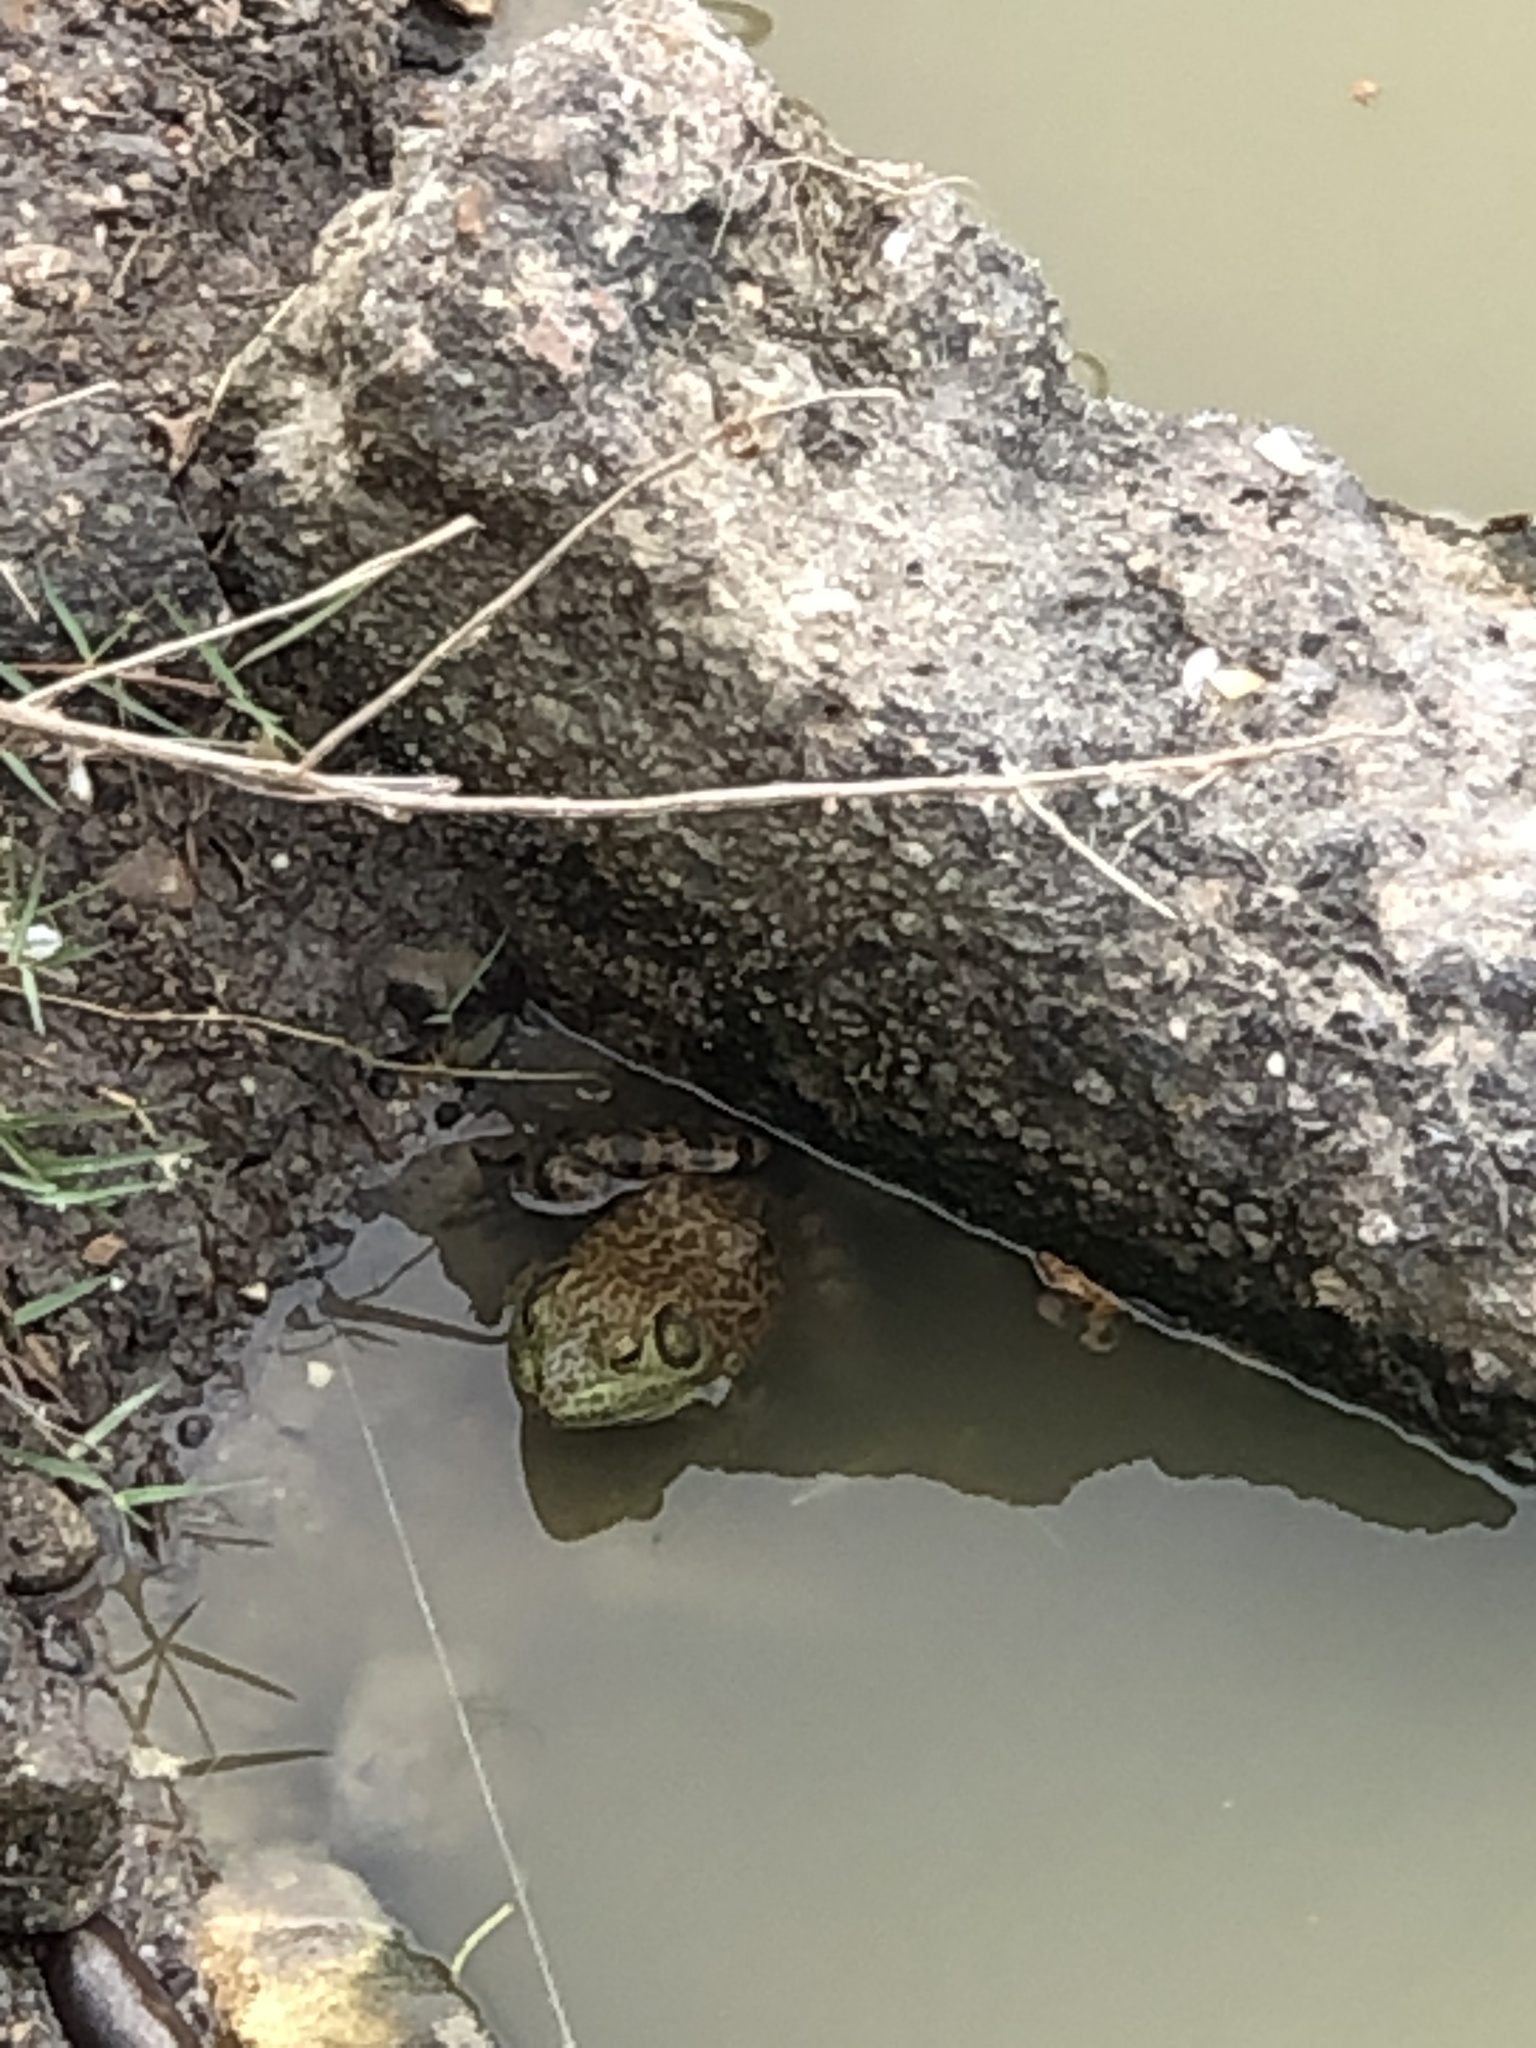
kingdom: Animalia
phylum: Chordata
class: Amphibia
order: Anura
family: Ranidae
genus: Lithobates
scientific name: Lithobates catesbeianus
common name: American bullfrog
